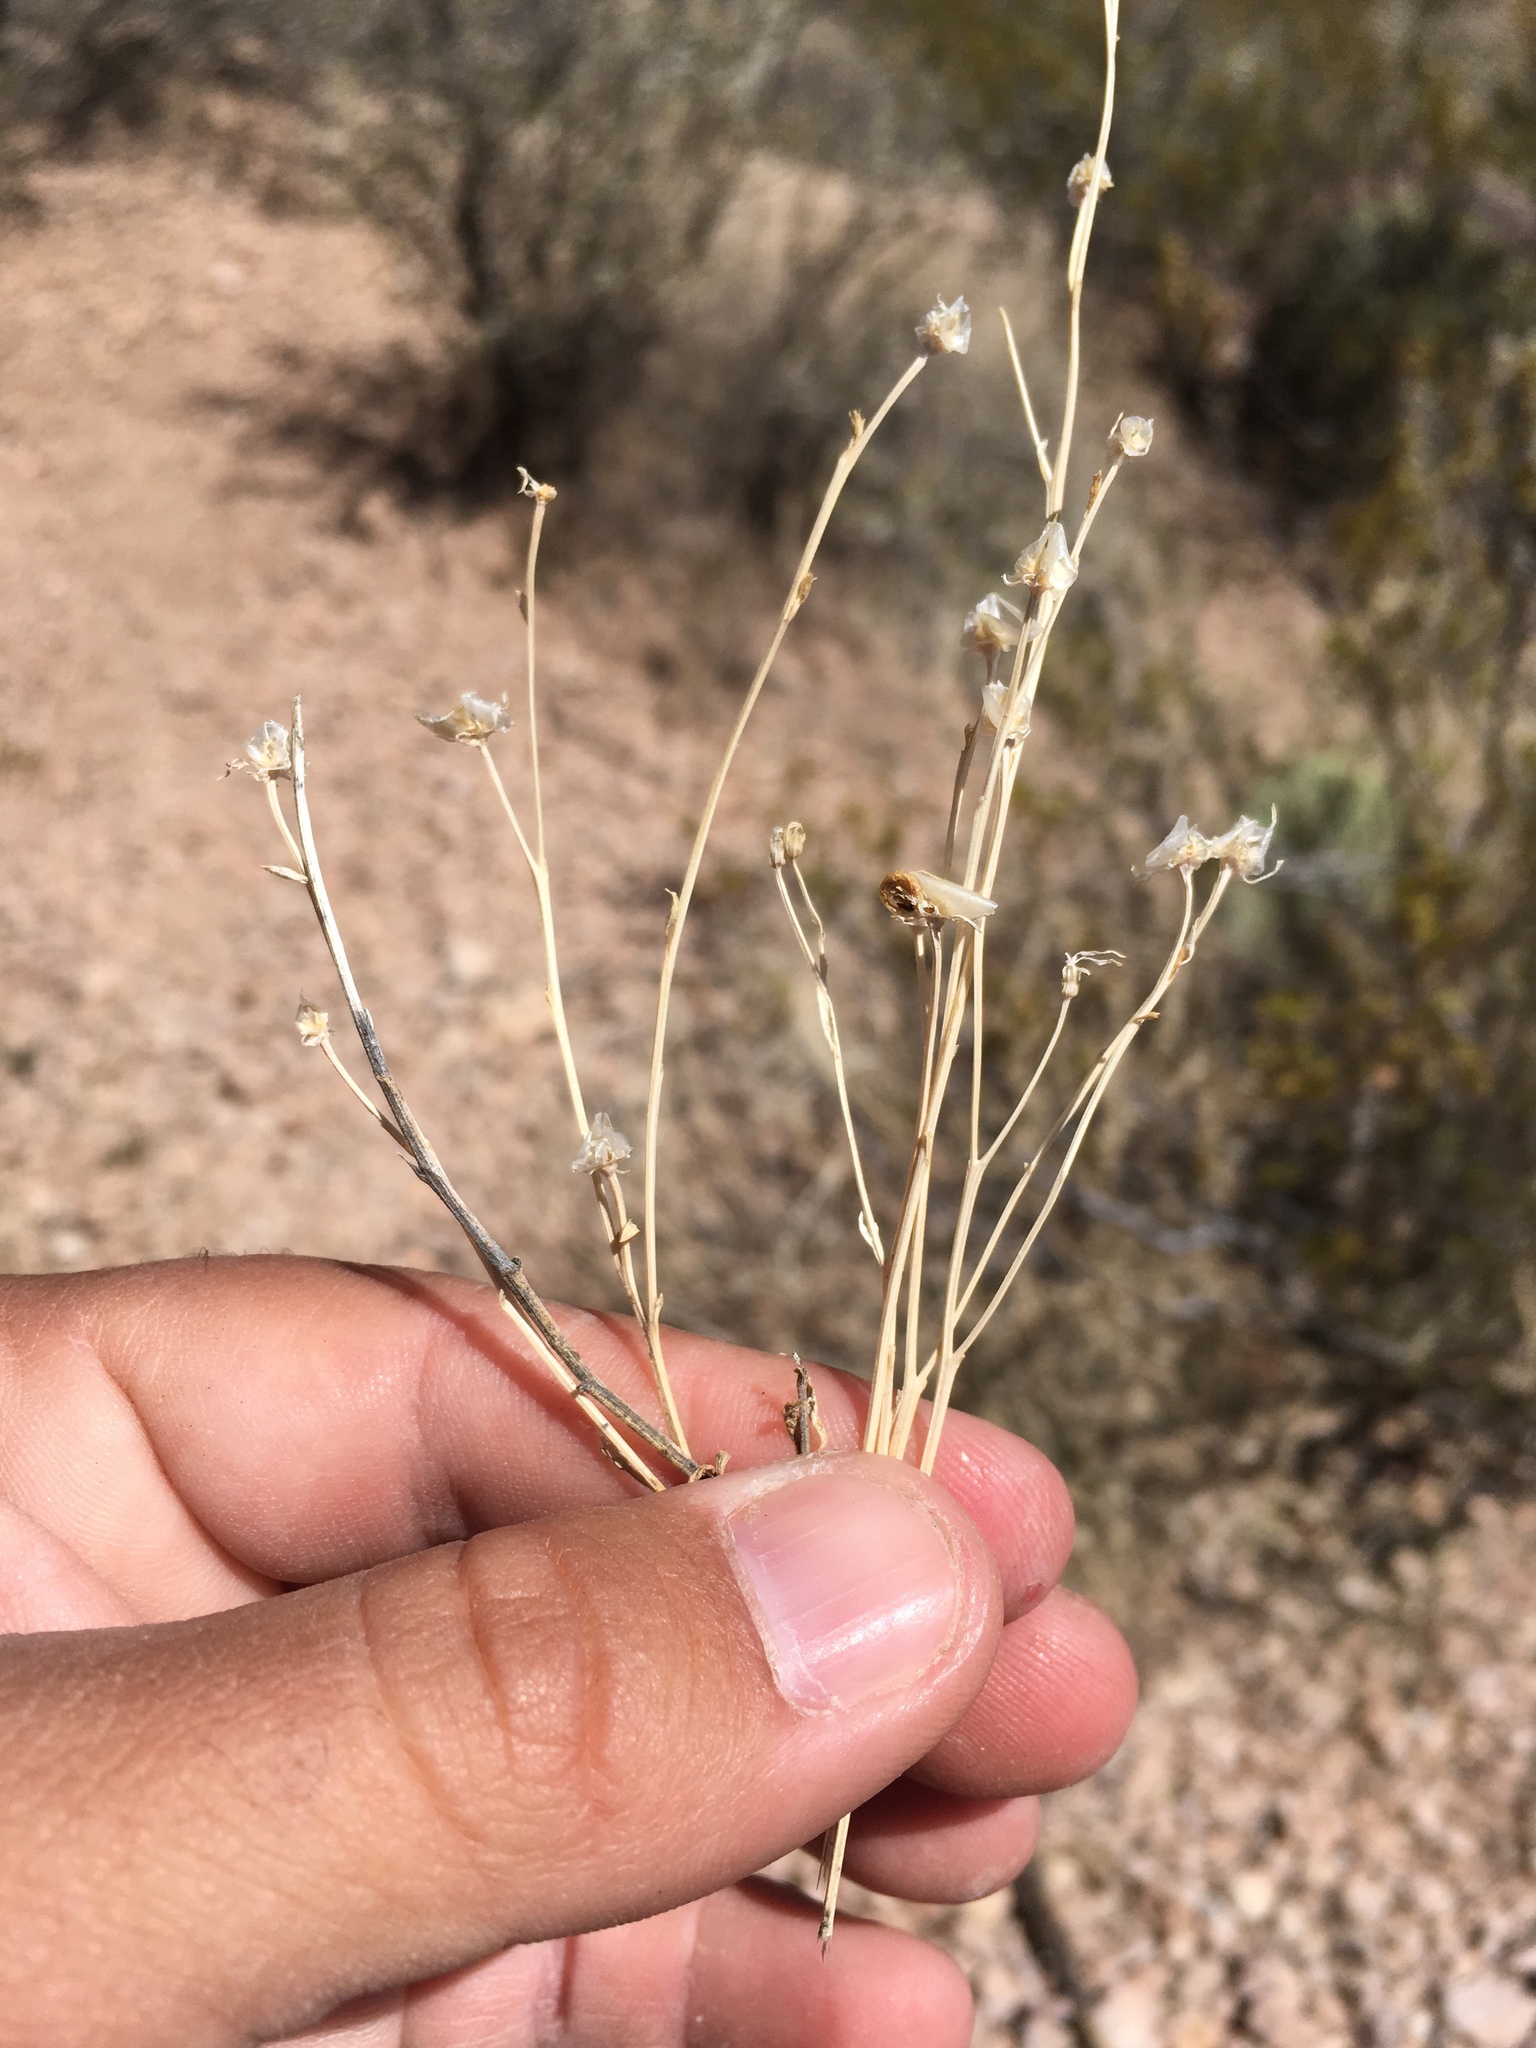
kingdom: Plantae
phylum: Tracheophyta
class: Magnoliopsida
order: Lamiales
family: Oleaceae
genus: Menodora
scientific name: Menodora scabra
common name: Rough menodora
